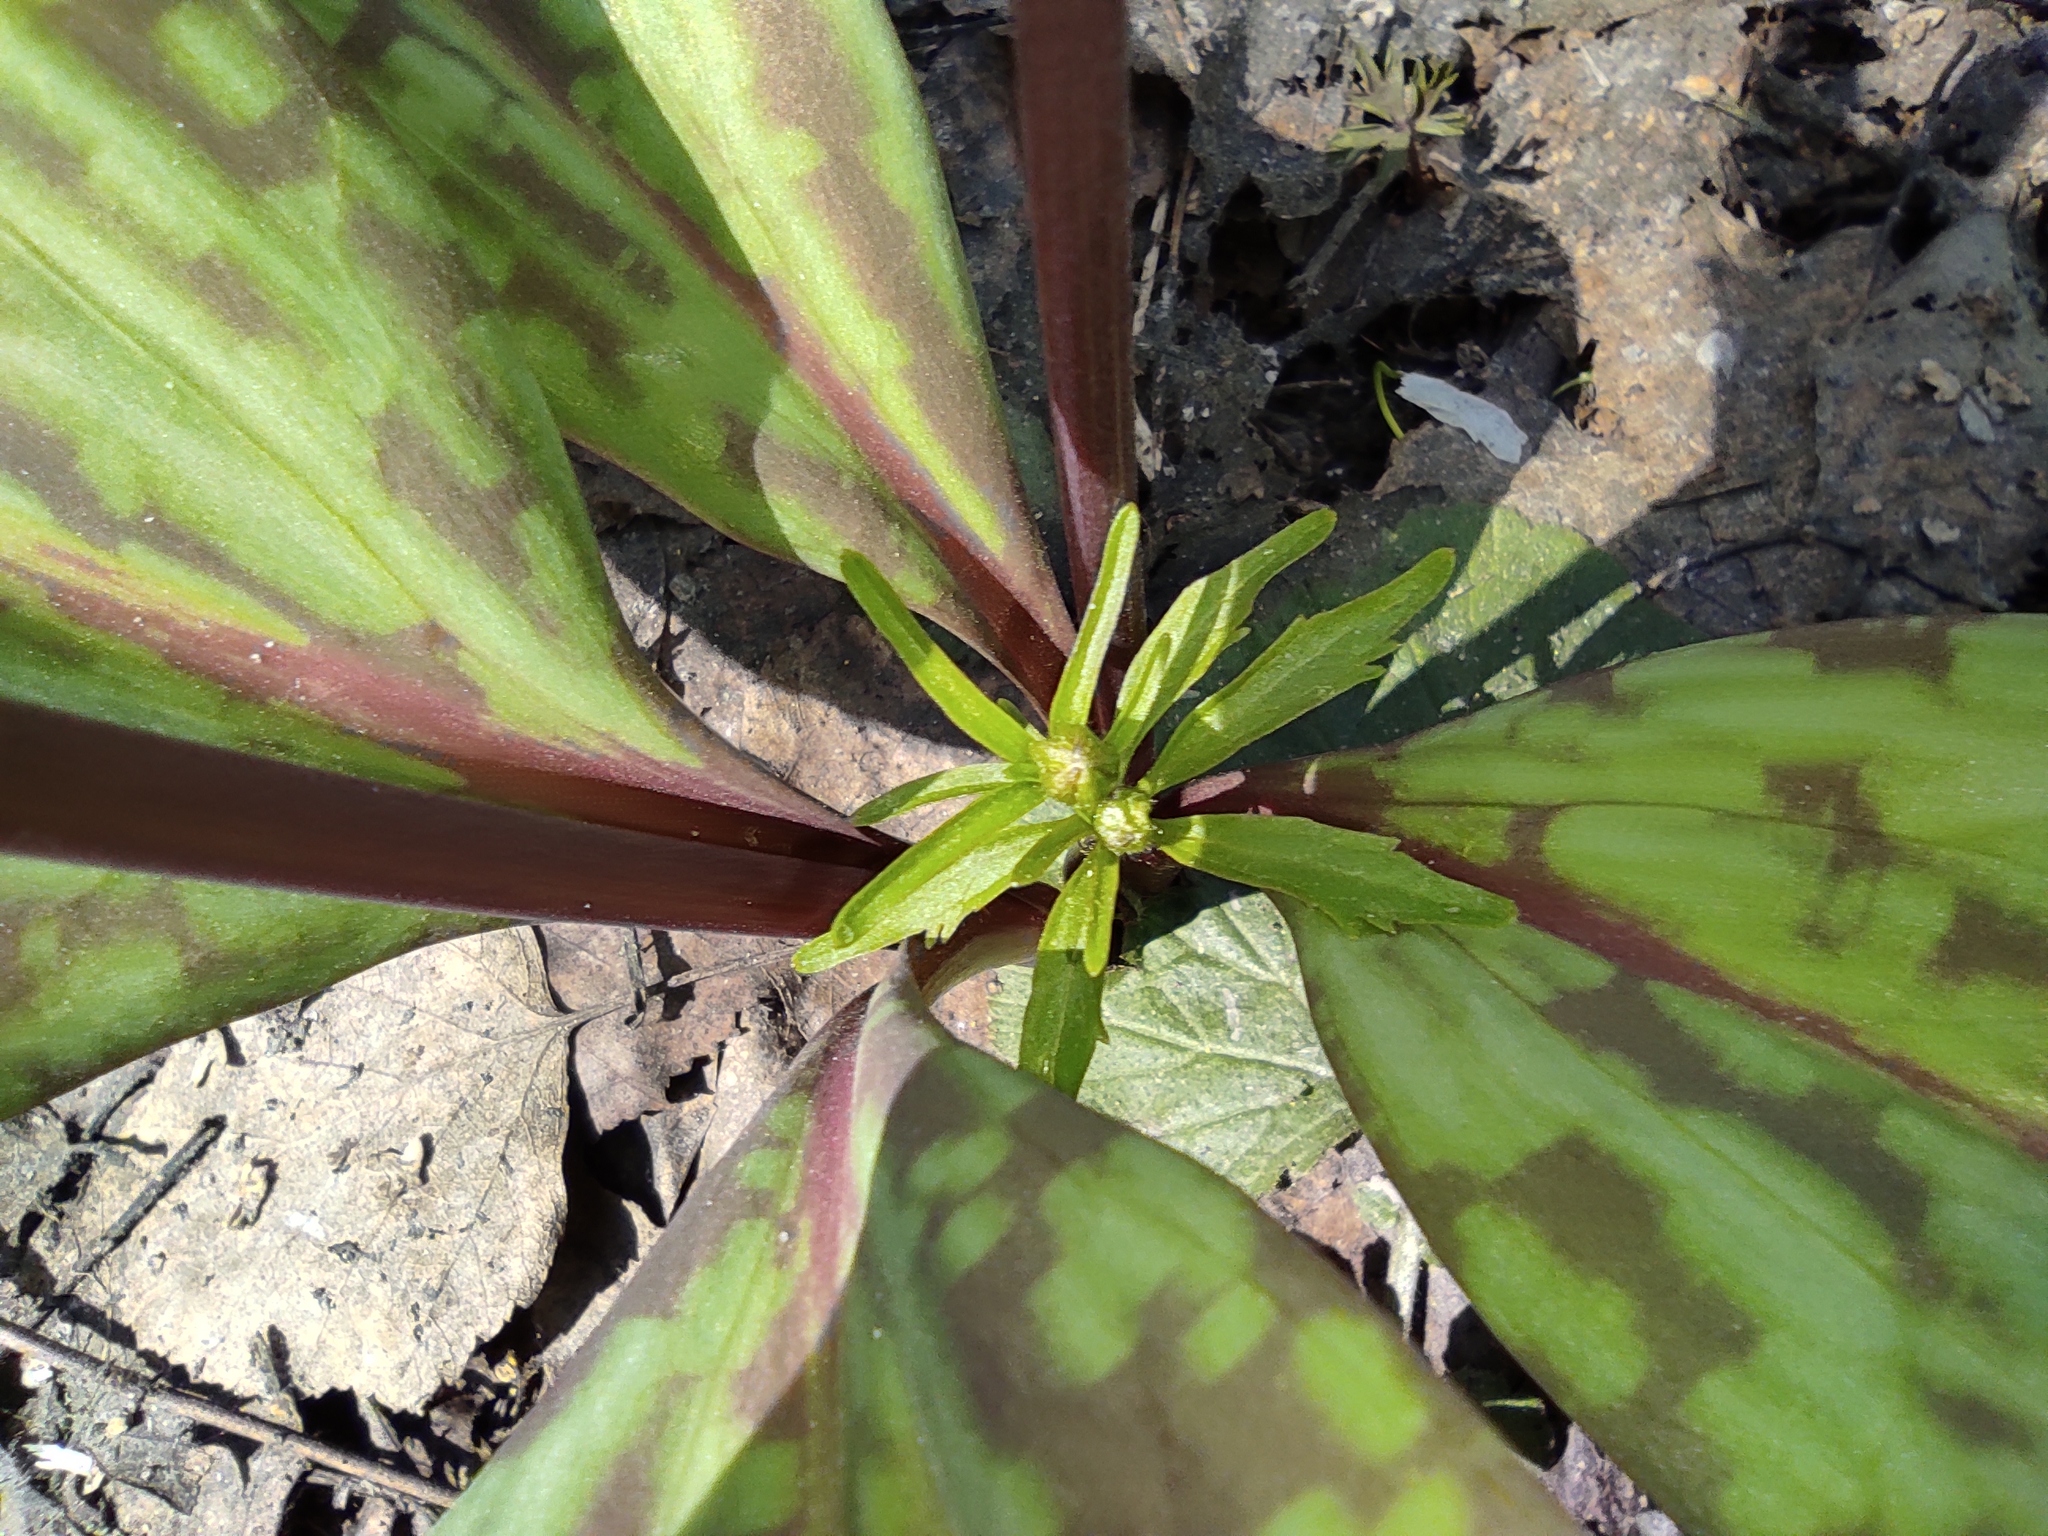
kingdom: Plantae
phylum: Tracheophyta
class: Liliopsida
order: Liliales
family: Liliaceae
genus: Erythronium
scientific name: Erythronium sibiricum
